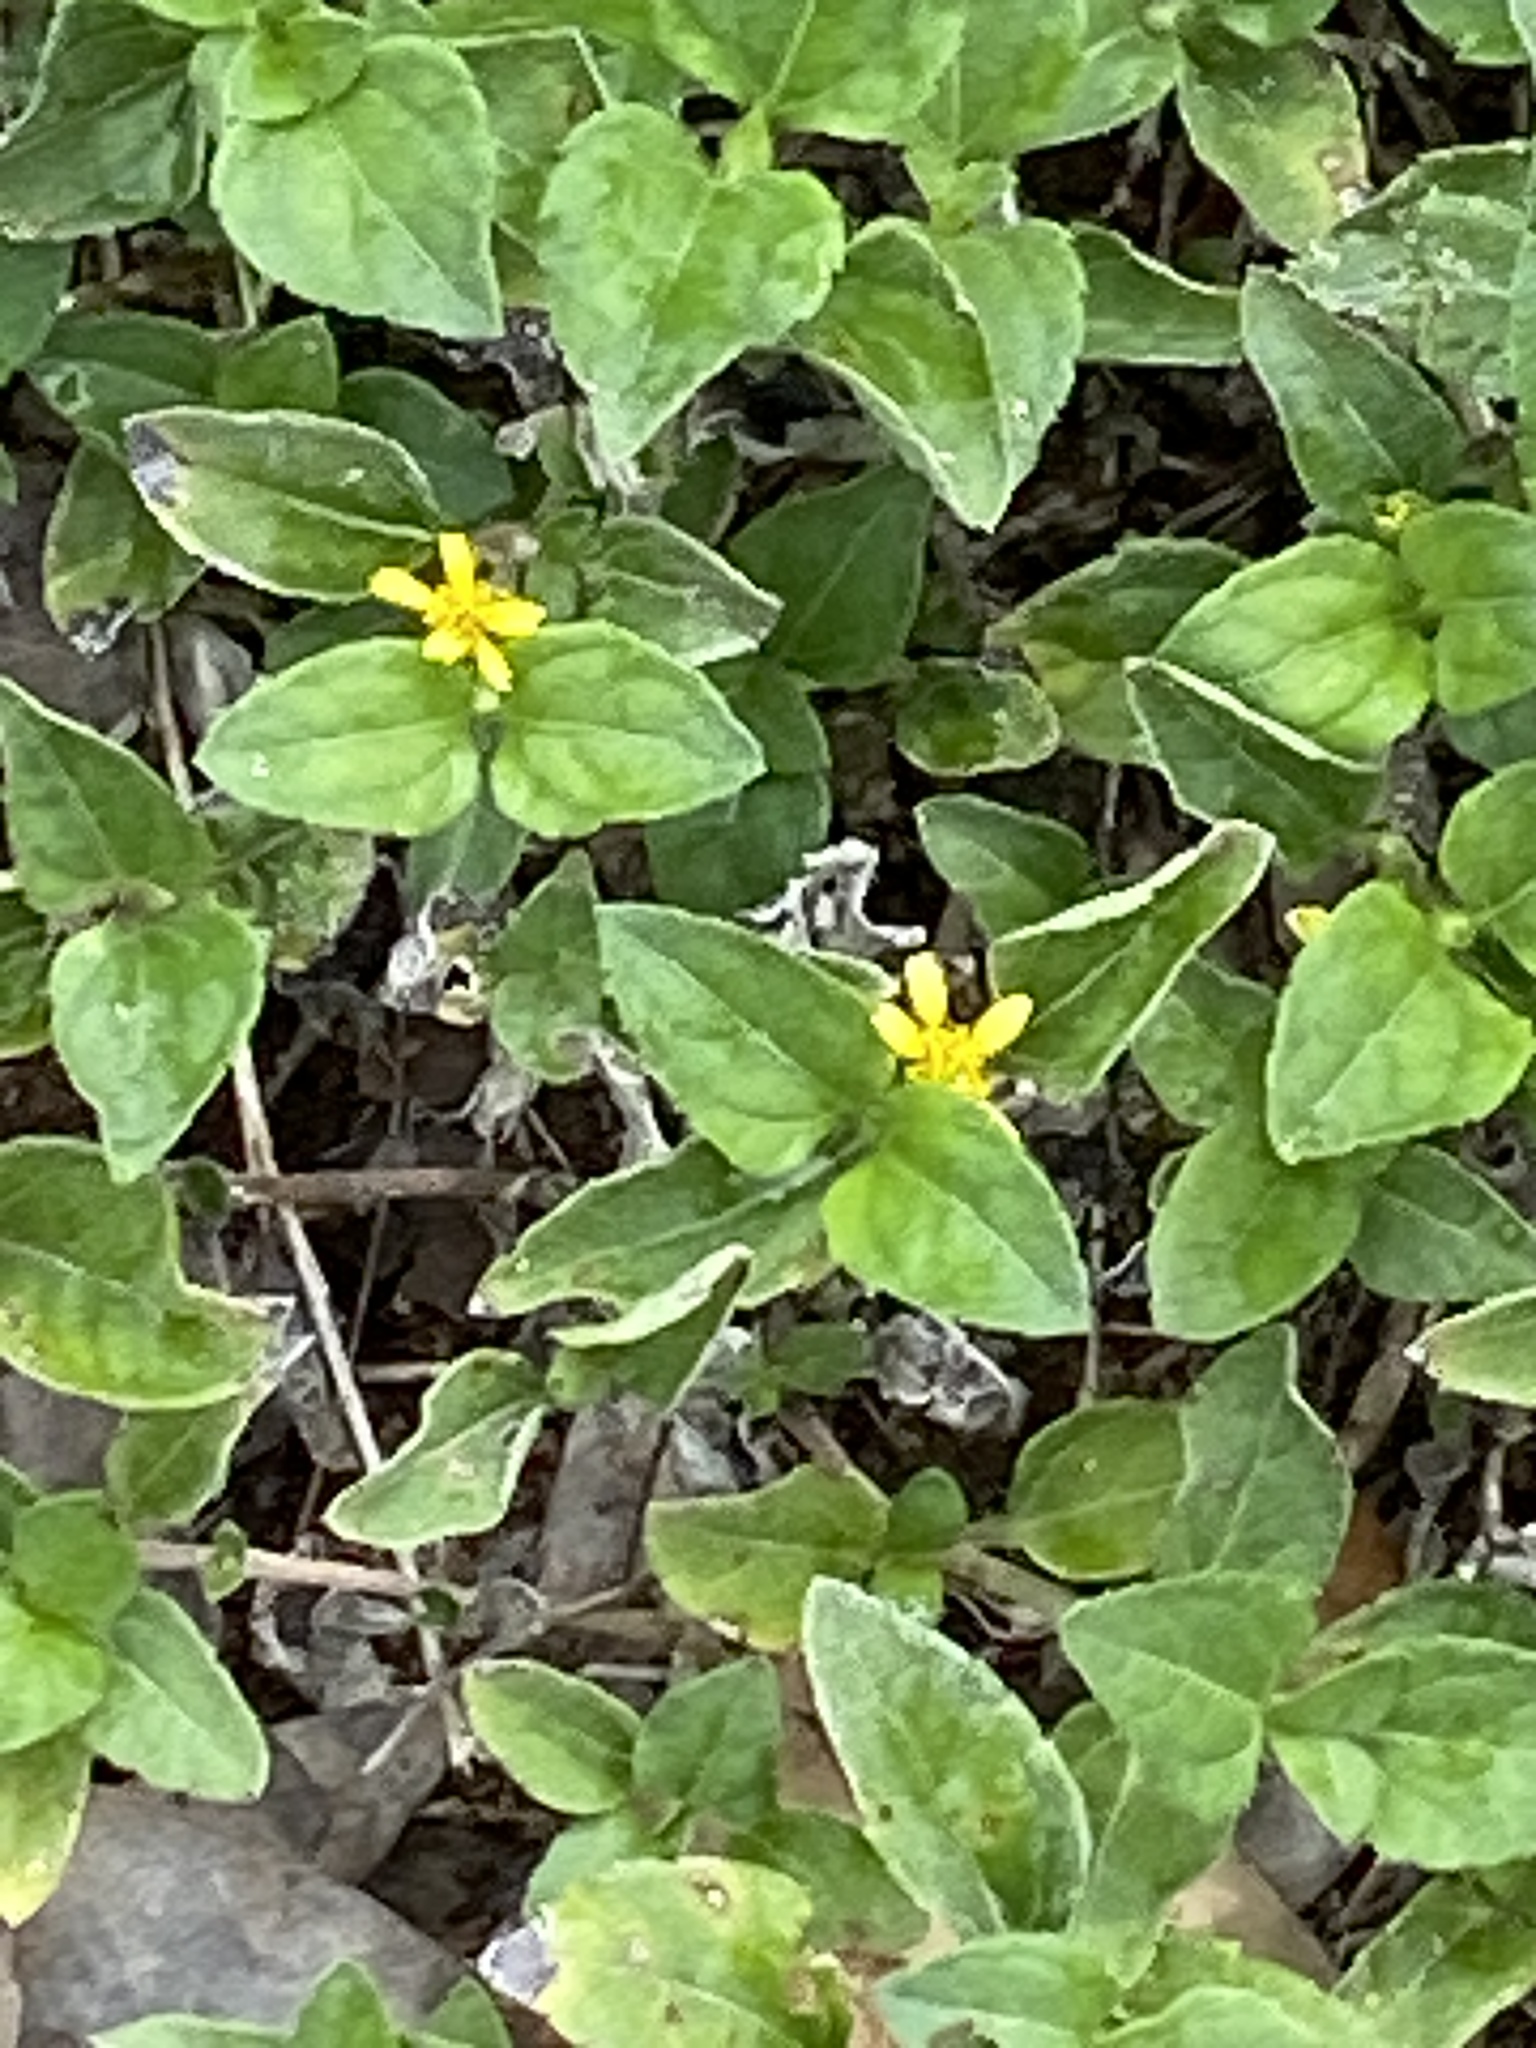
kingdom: Plantae
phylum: Tracheophyta
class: Magnoliopsida
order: Asterales
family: Asteraceae
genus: Calyptocarpus
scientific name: Calyptocarpus vialis
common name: Straggler daisy
